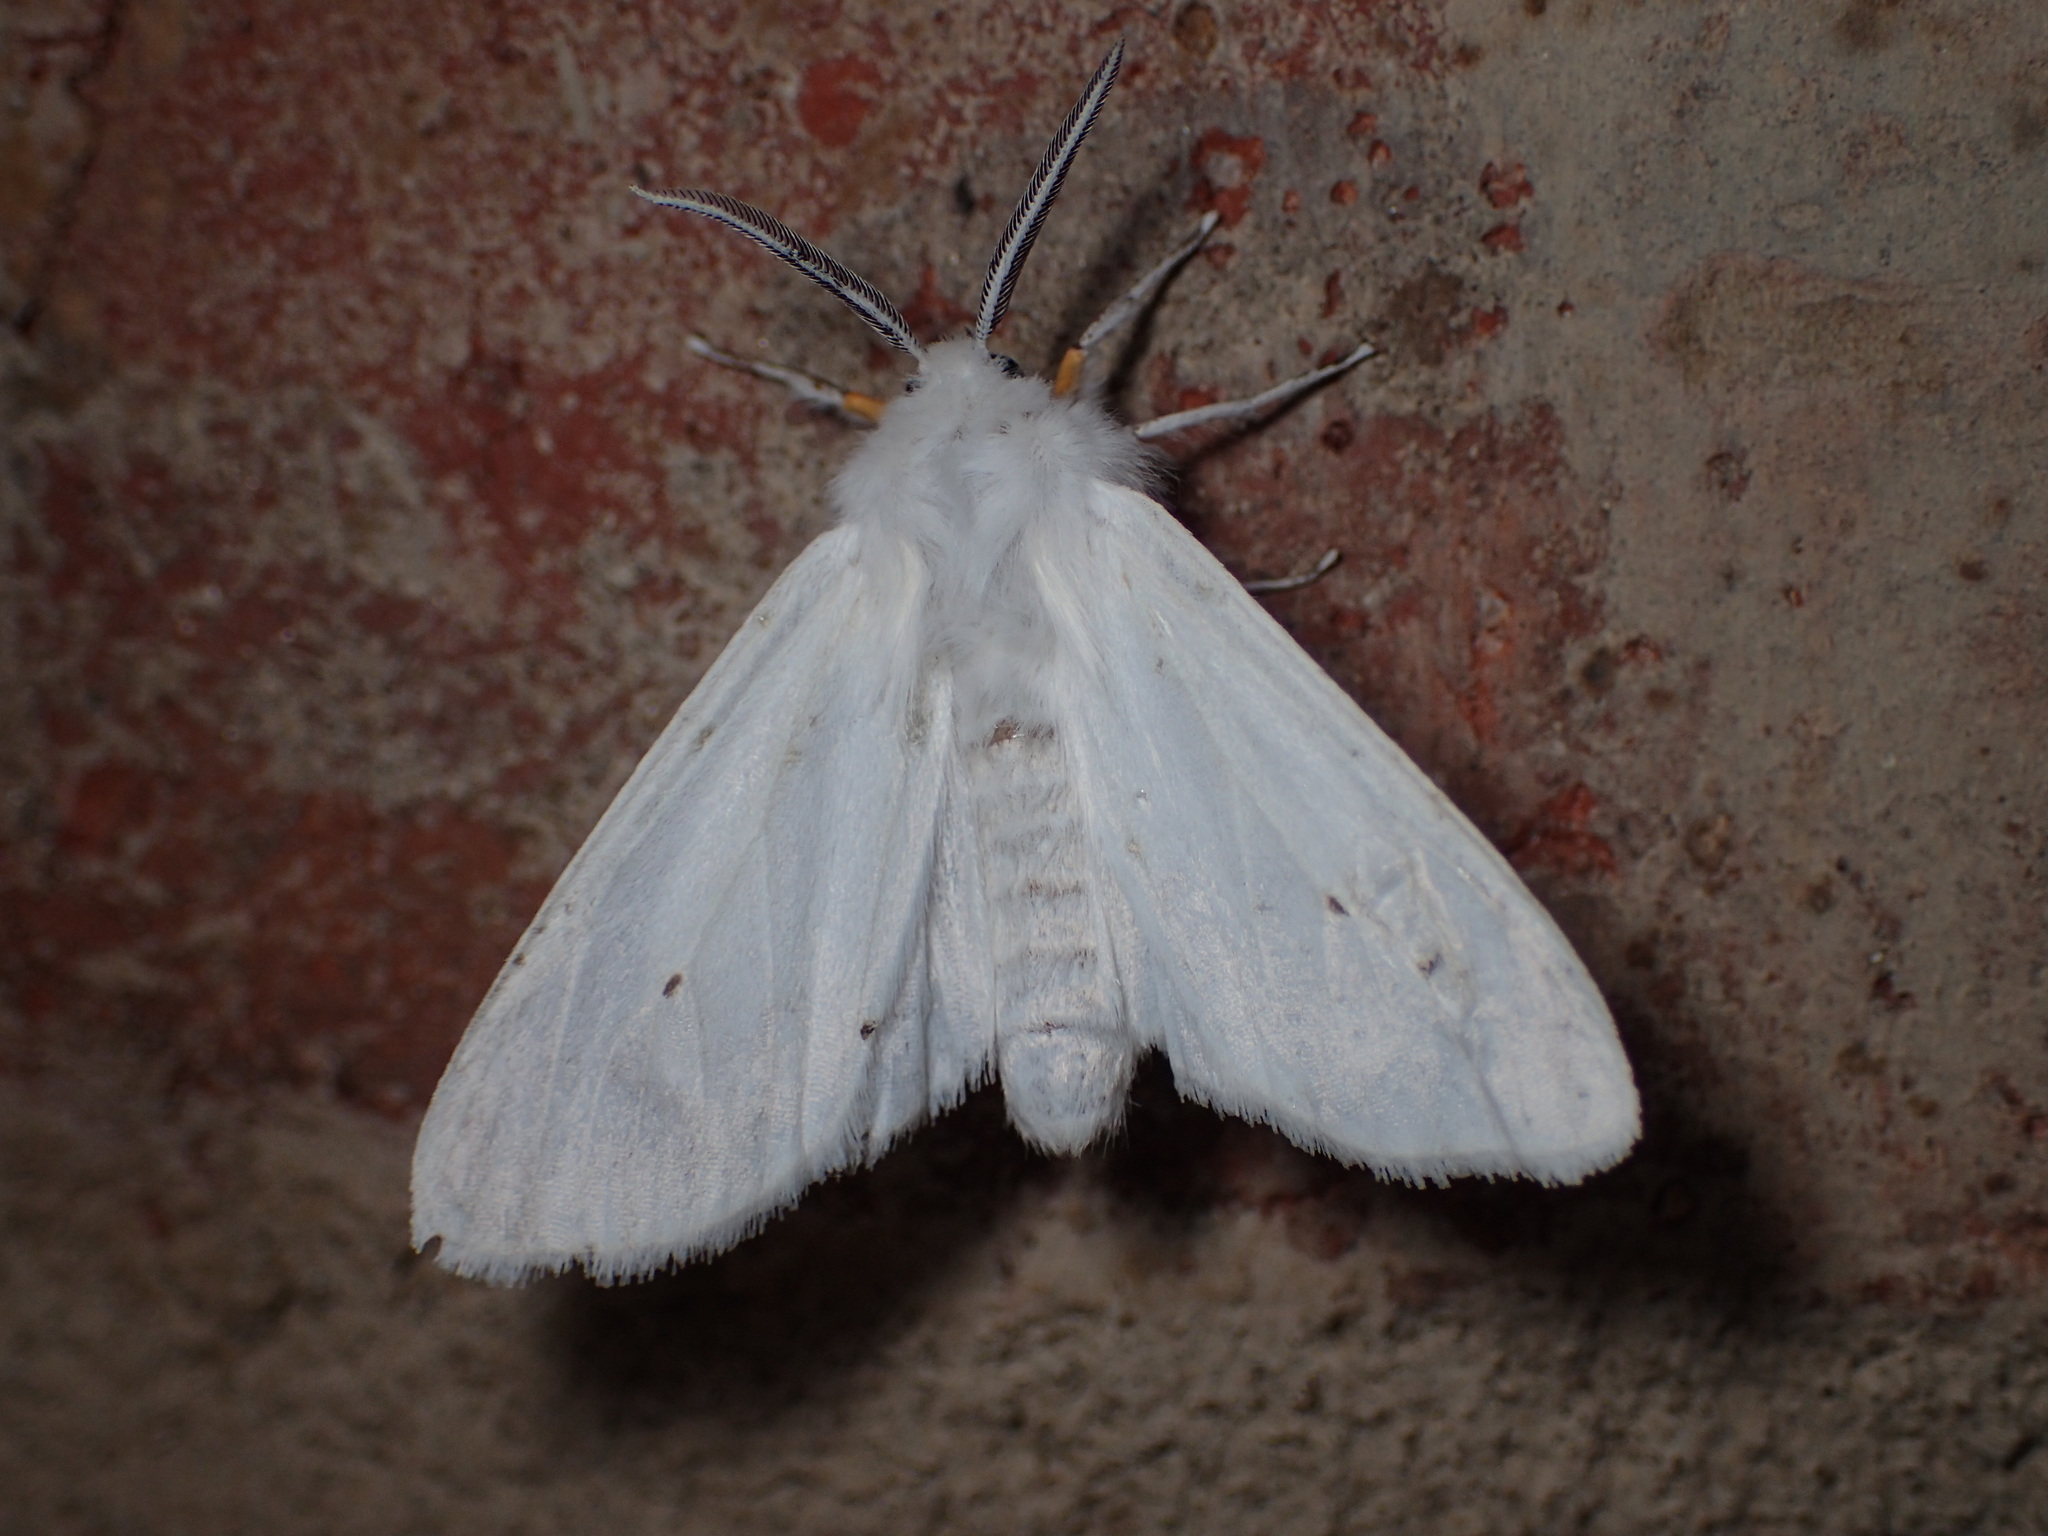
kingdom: Animalia
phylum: Arthropoda
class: Insecta
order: Lepidoptera
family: Erebidae
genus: Spilosoma
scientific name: Spilosoma congrua
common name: Agreeable tiger moth
